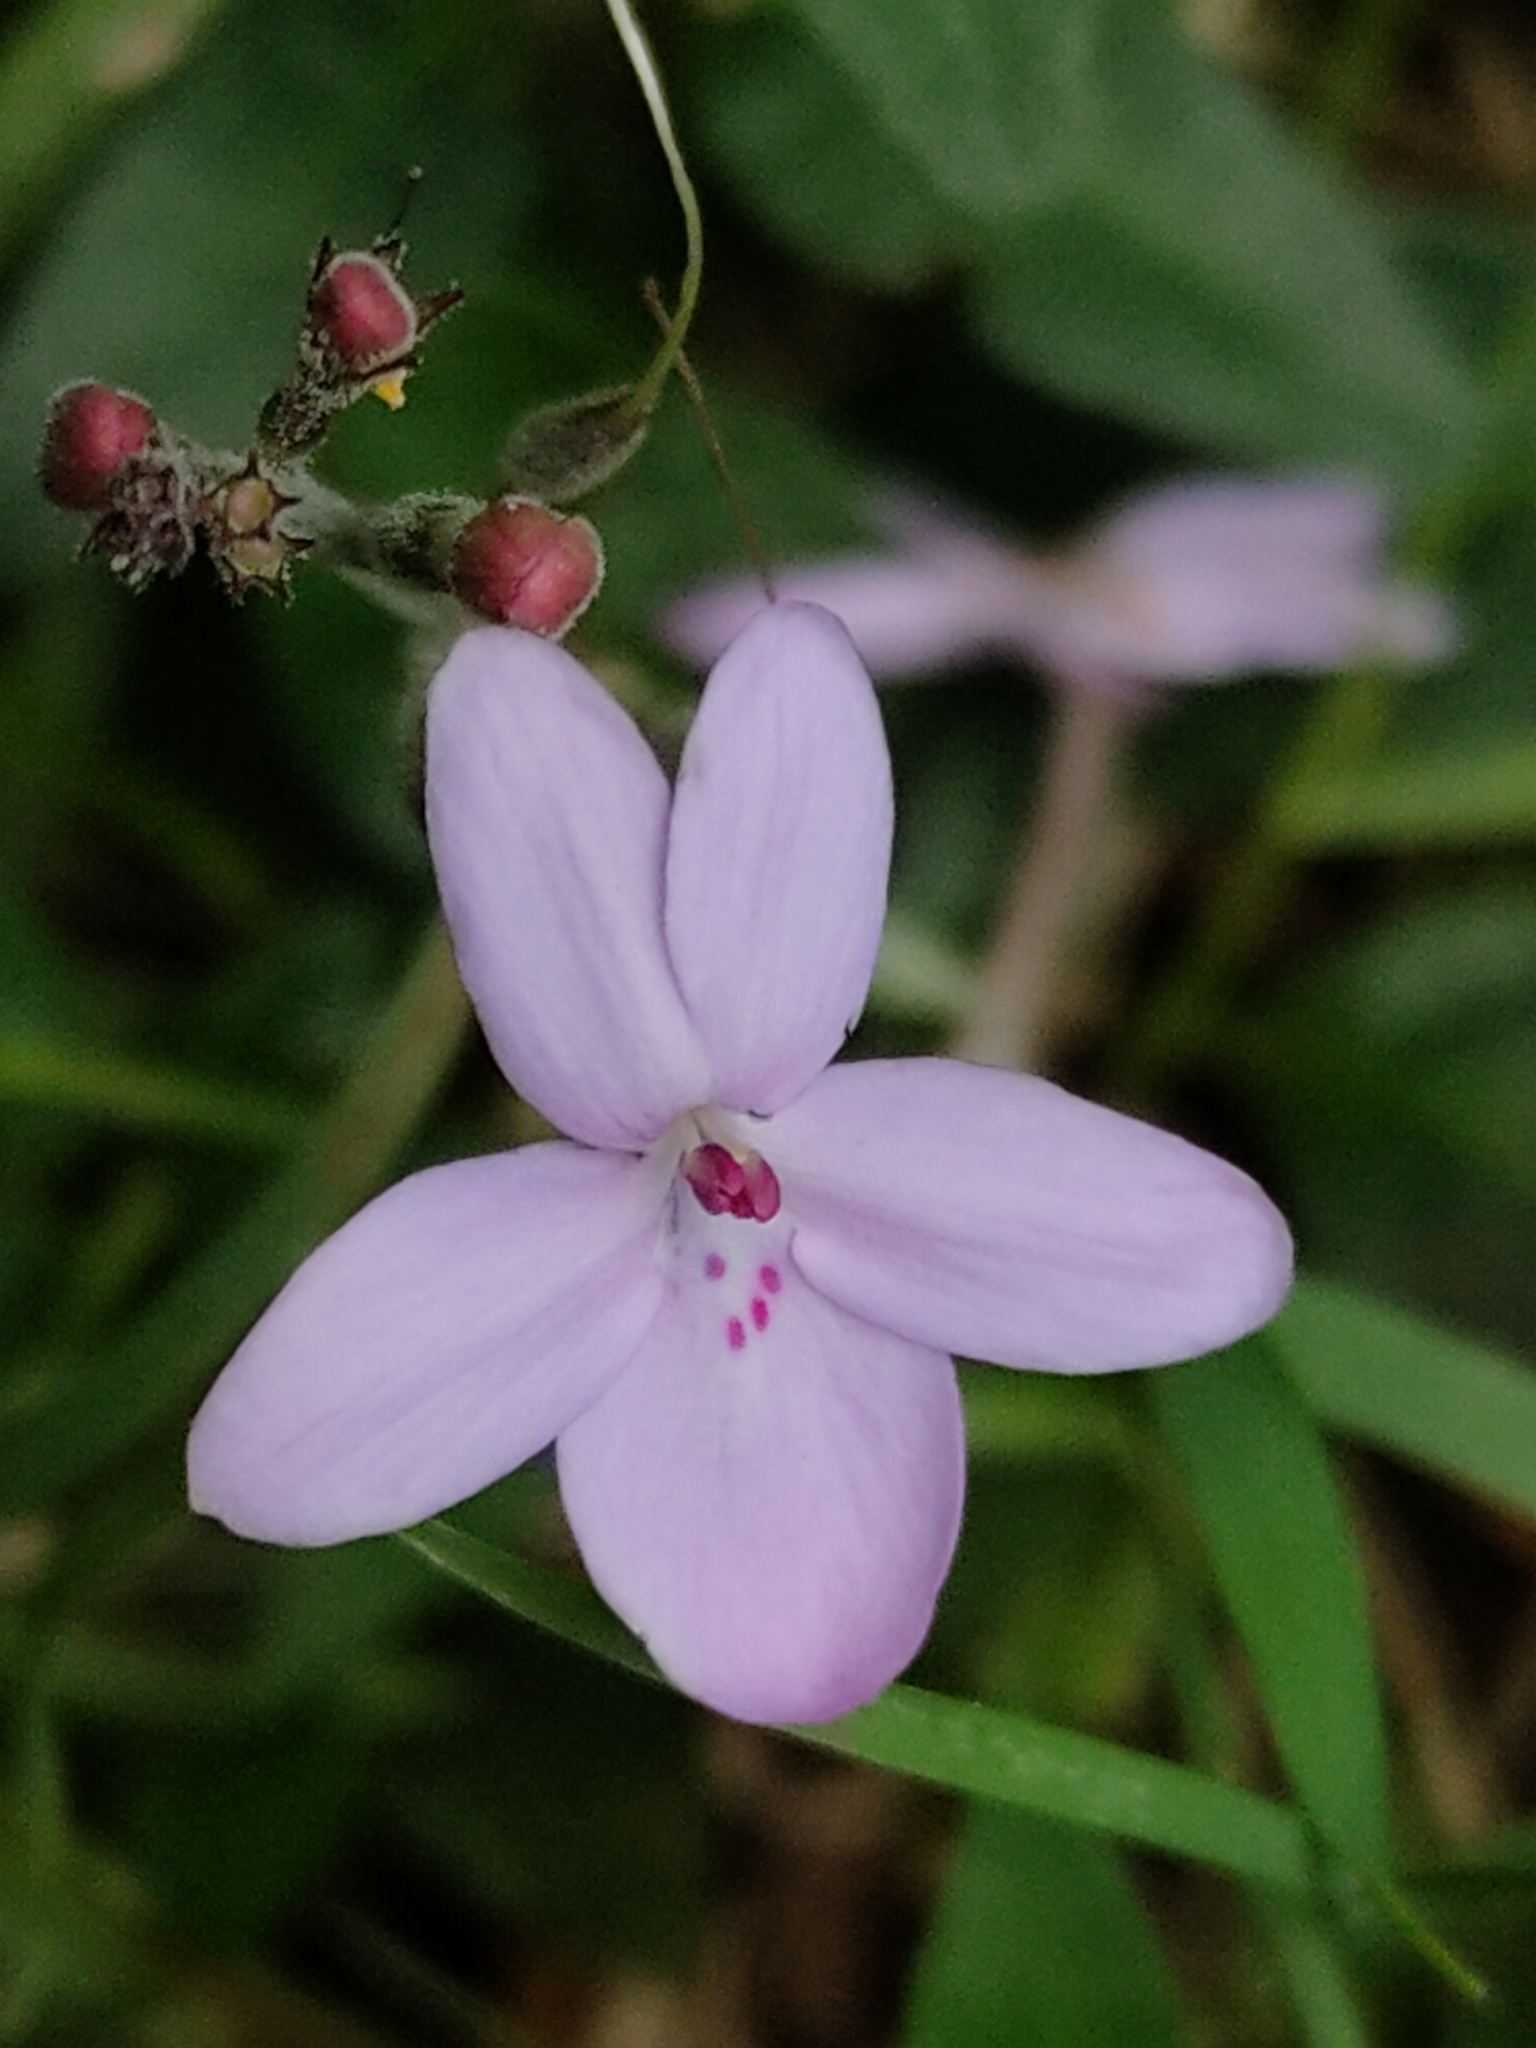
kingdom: Plantae
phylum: Tracheophyta
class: Magnoliopsida
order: Lamiales
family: Acanthaceae
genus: Pseuderanthemum
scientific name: Pseuderanthemum variabile
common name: Night and afternoon
